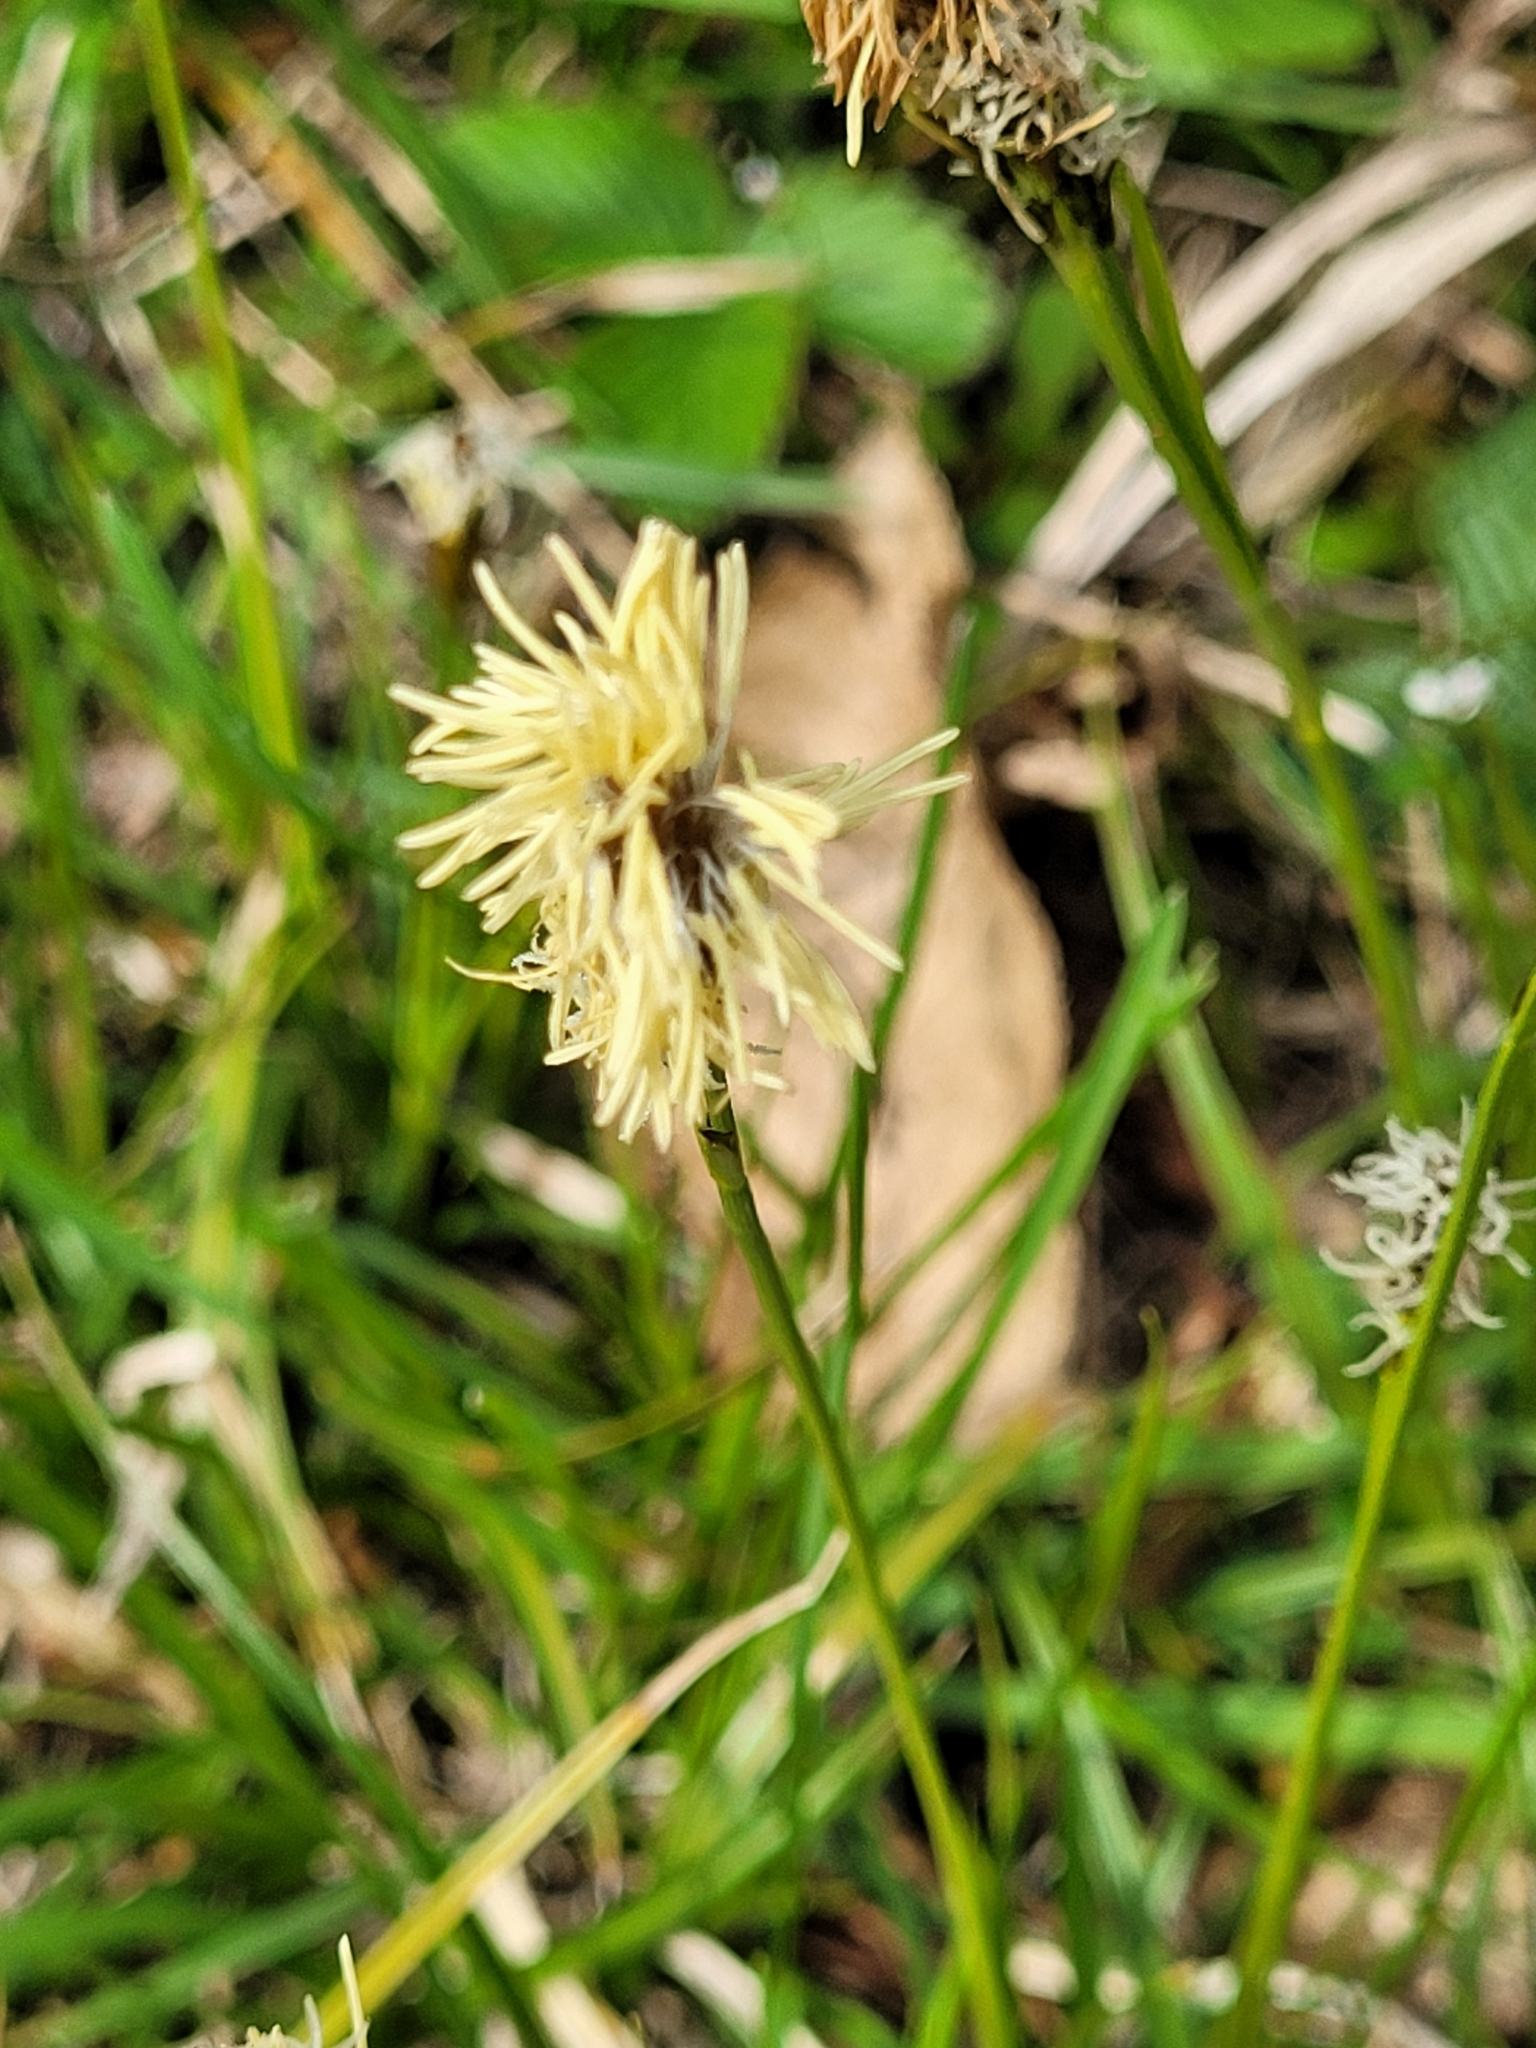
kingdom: Plantae
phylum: Tracheophyta
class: Liliopsida
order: Poales
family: Cyperaceae
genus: Carex
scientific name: Carex caryophyllea
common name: Spring sedge
